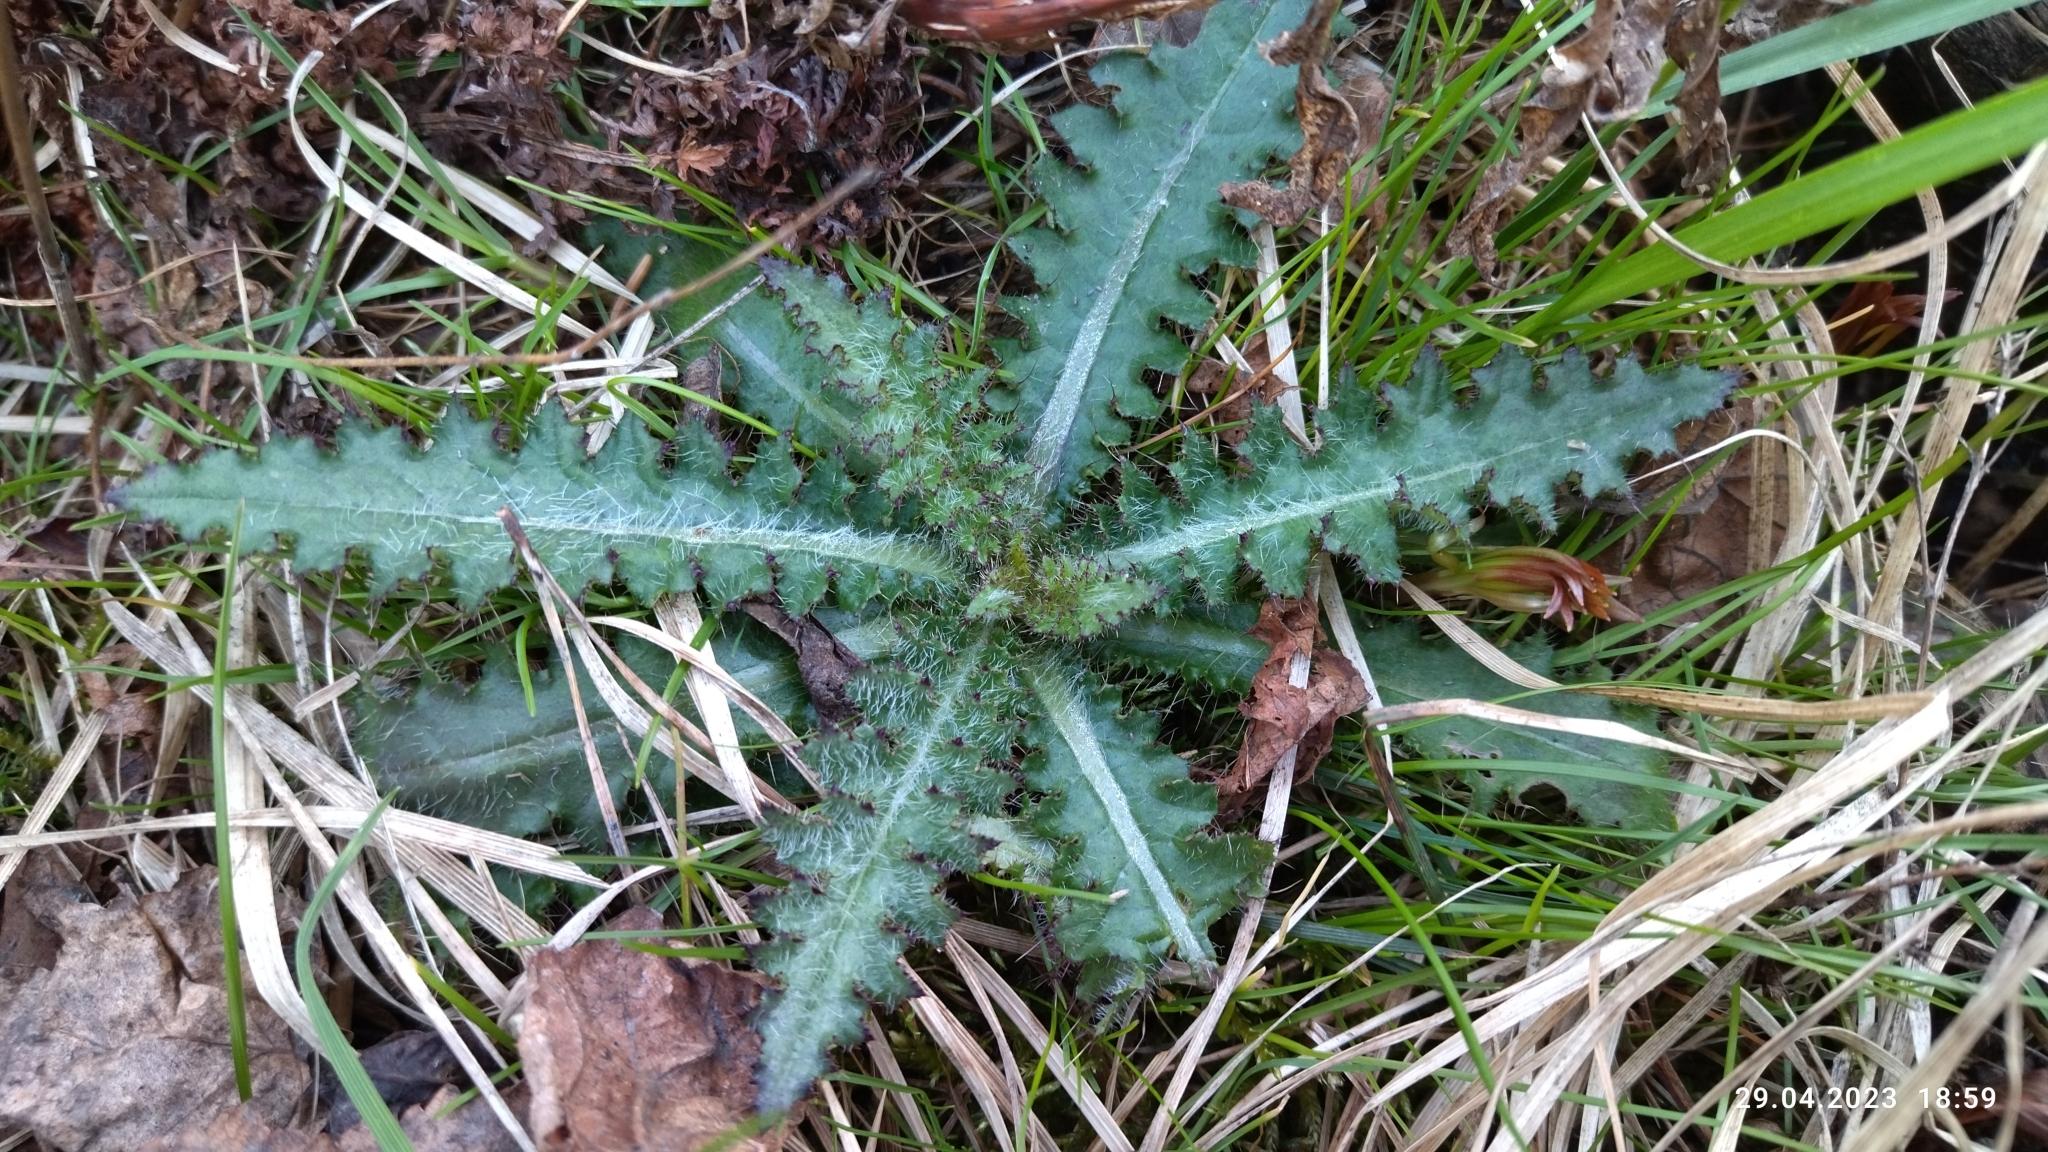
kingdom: Plantae
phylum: Tracheophyta
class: Magnoliopsida
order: Asterales
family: Asteraceae
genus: Cirsium
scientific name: Cirsium palustre
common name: Marsh thistle
